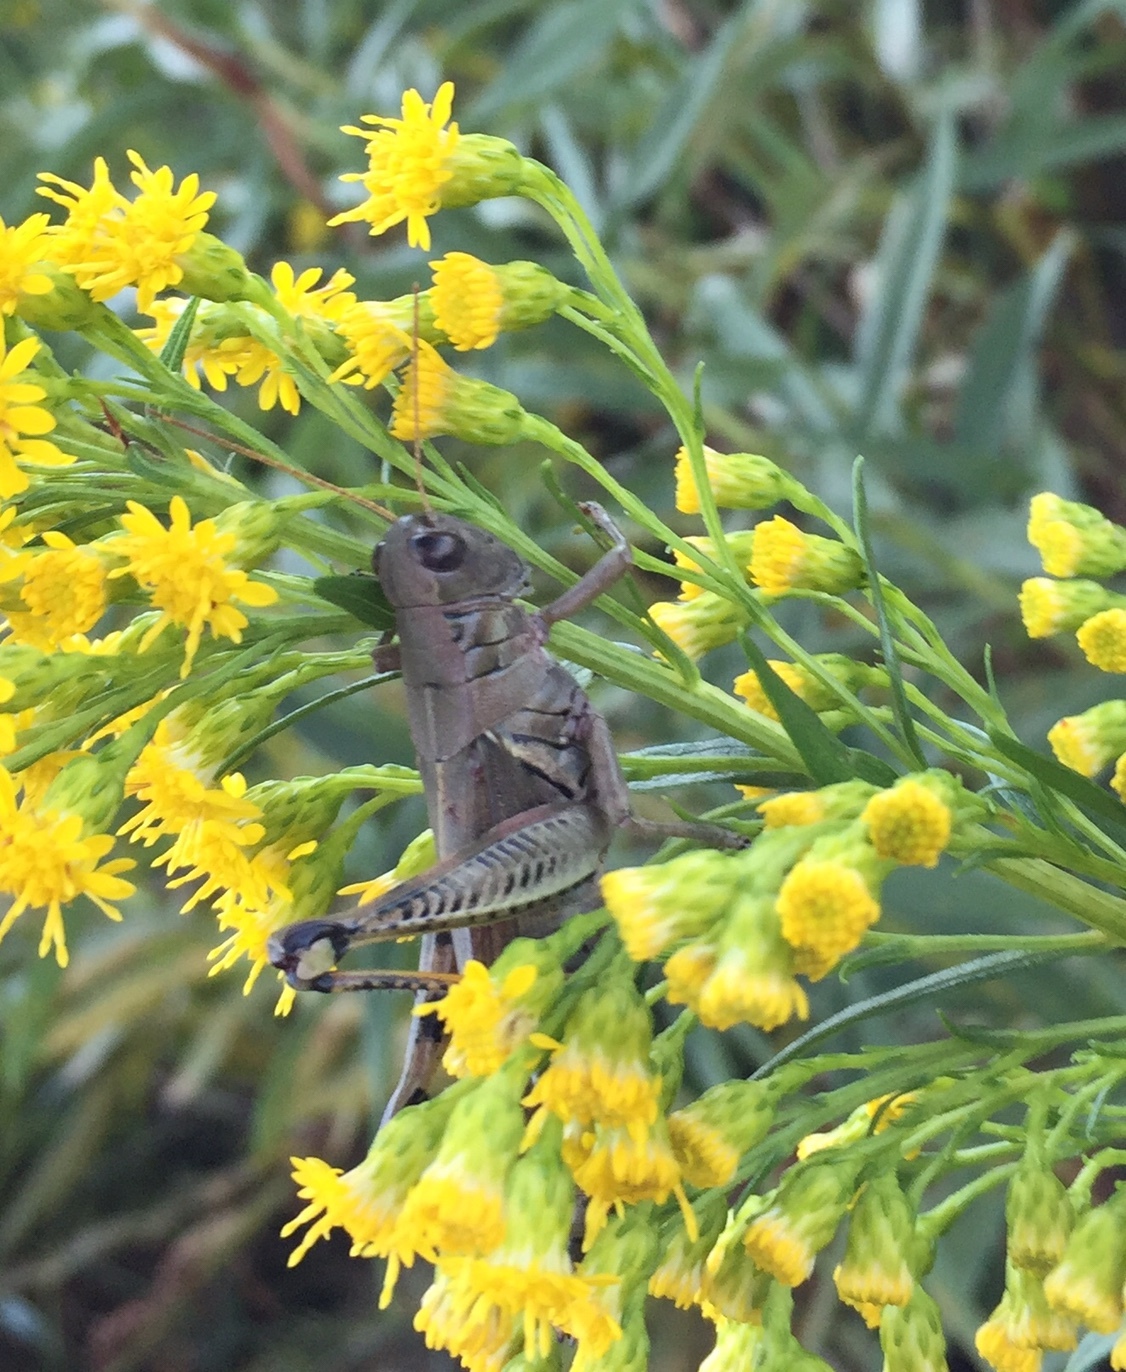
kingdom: Animalia
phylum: Arthropoda
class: Insecta
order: Orthoptera
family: Acrididae
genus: Melanoplus
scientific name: Melanoplus differentialis
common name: Differential grasshopper
